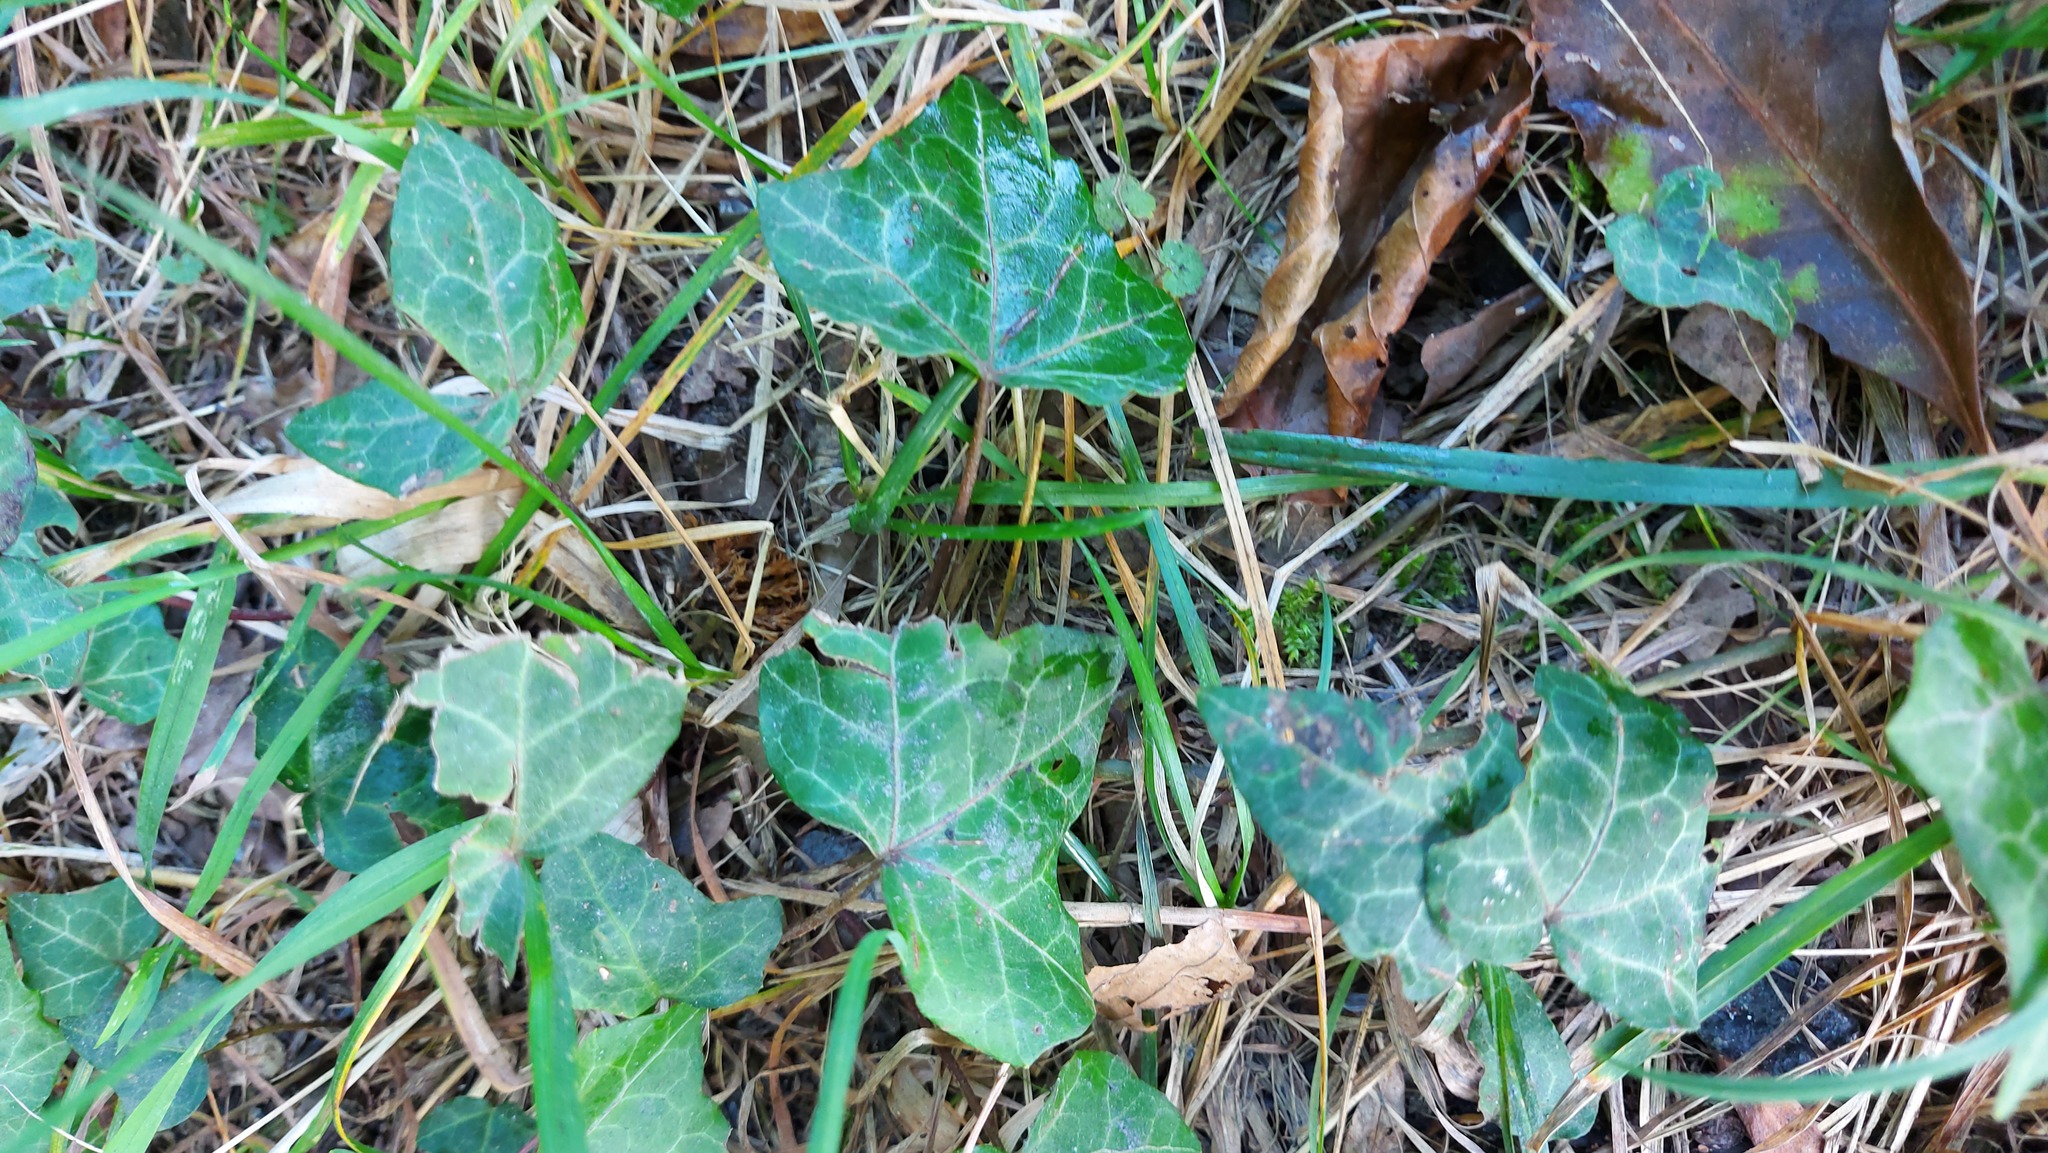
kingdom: Plantae
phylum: Tracheophyta
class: Magnoliopsida
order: Apiales
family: Araliaceae
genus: Hedera
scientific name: Hedera helix
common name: Ivy
